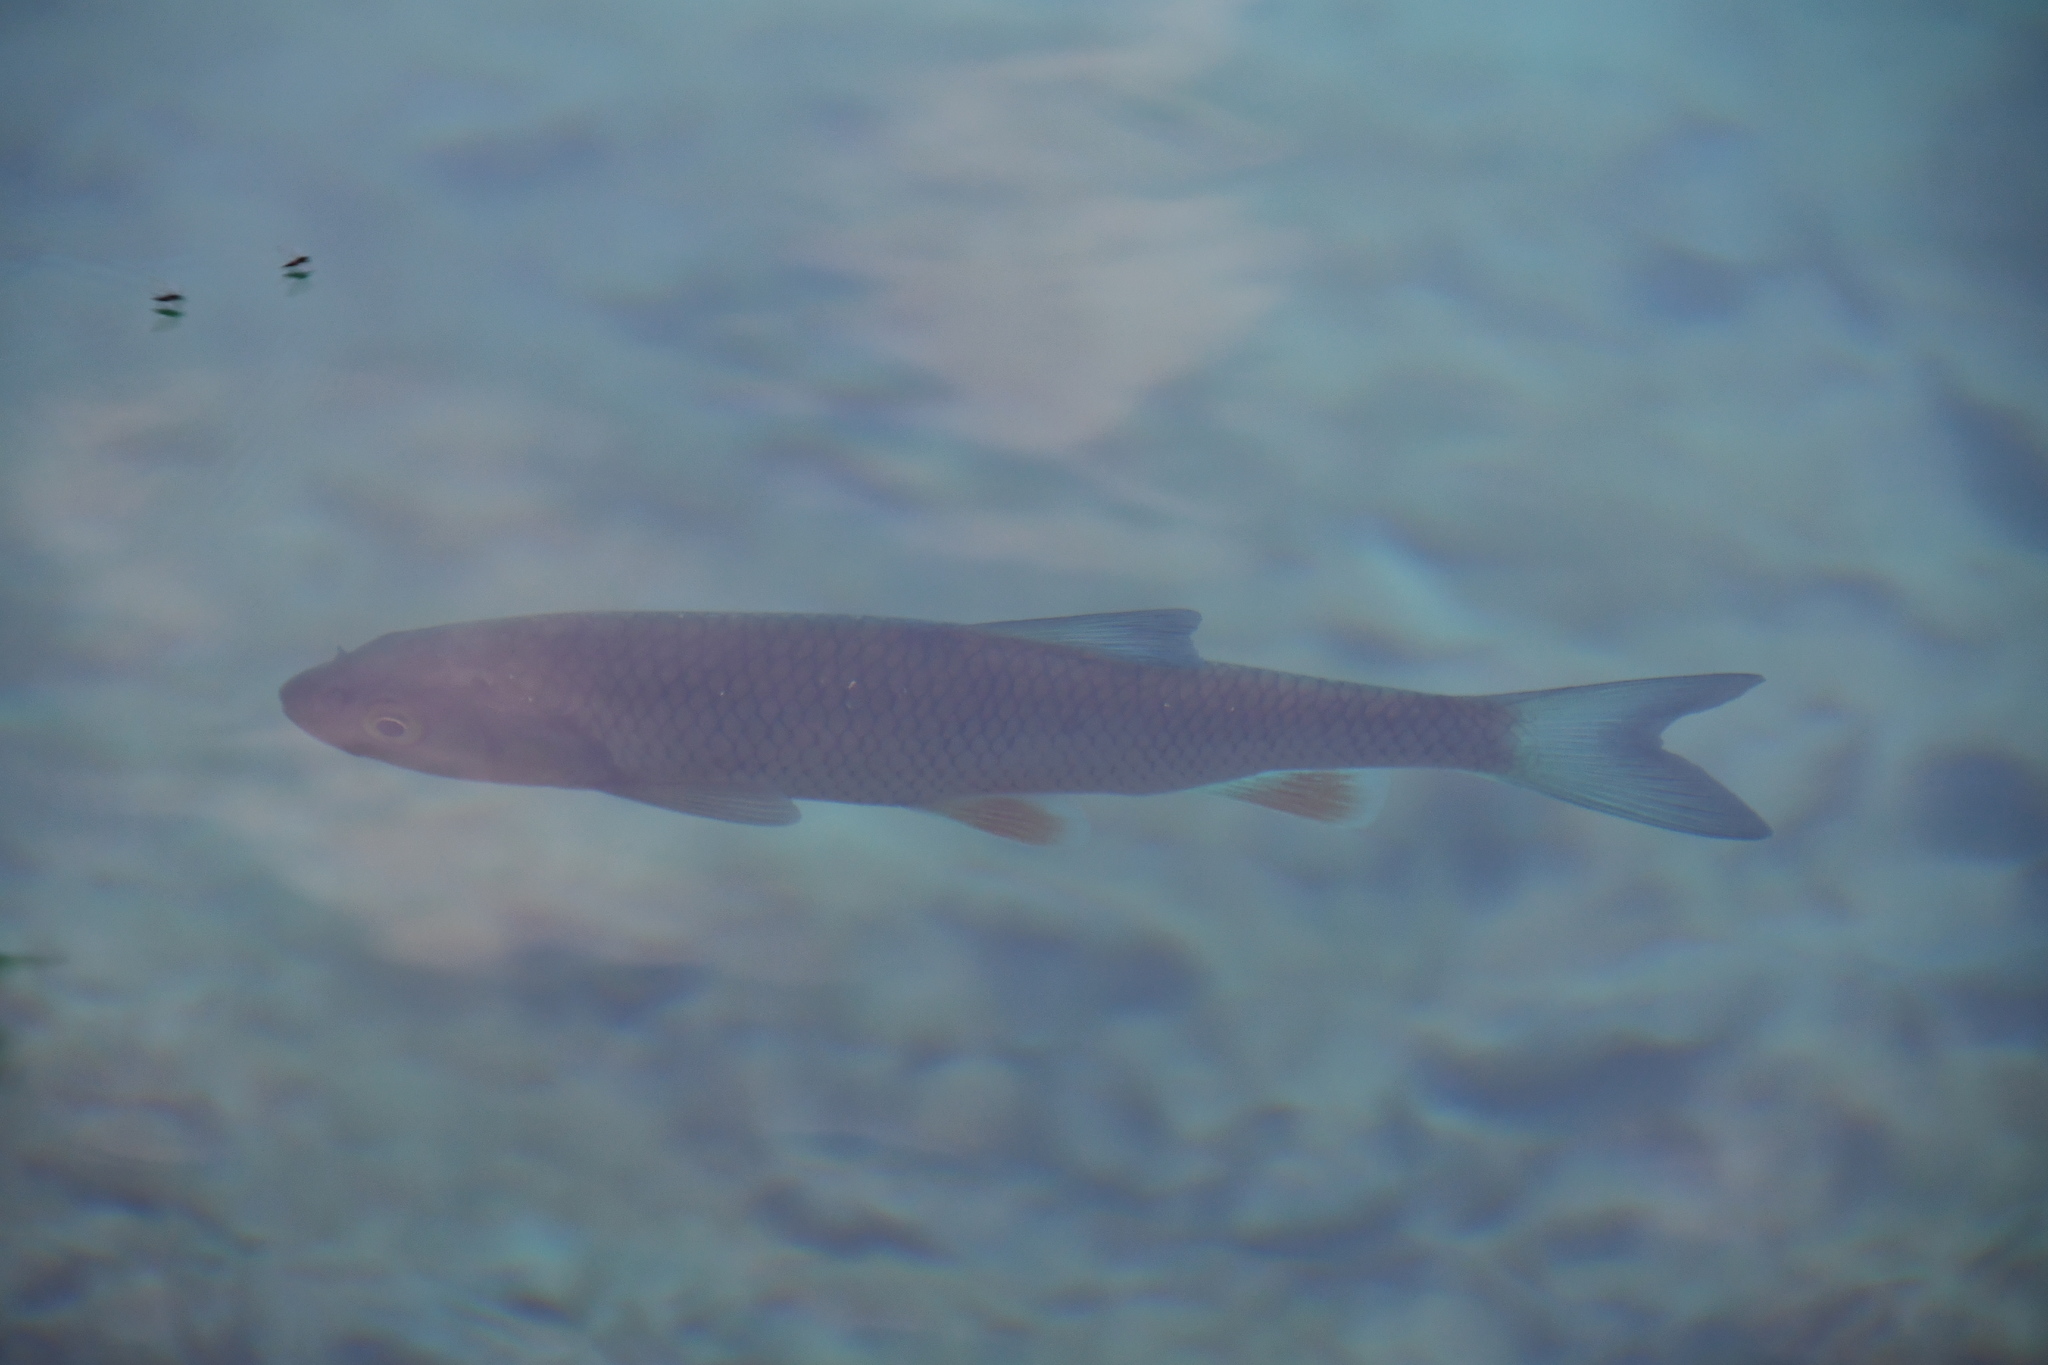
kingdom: Animalia
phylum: Chordata
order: Cypriniformes
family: Cyprinidae
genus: Squalius
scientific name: Squalius cephalus
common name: Chub
